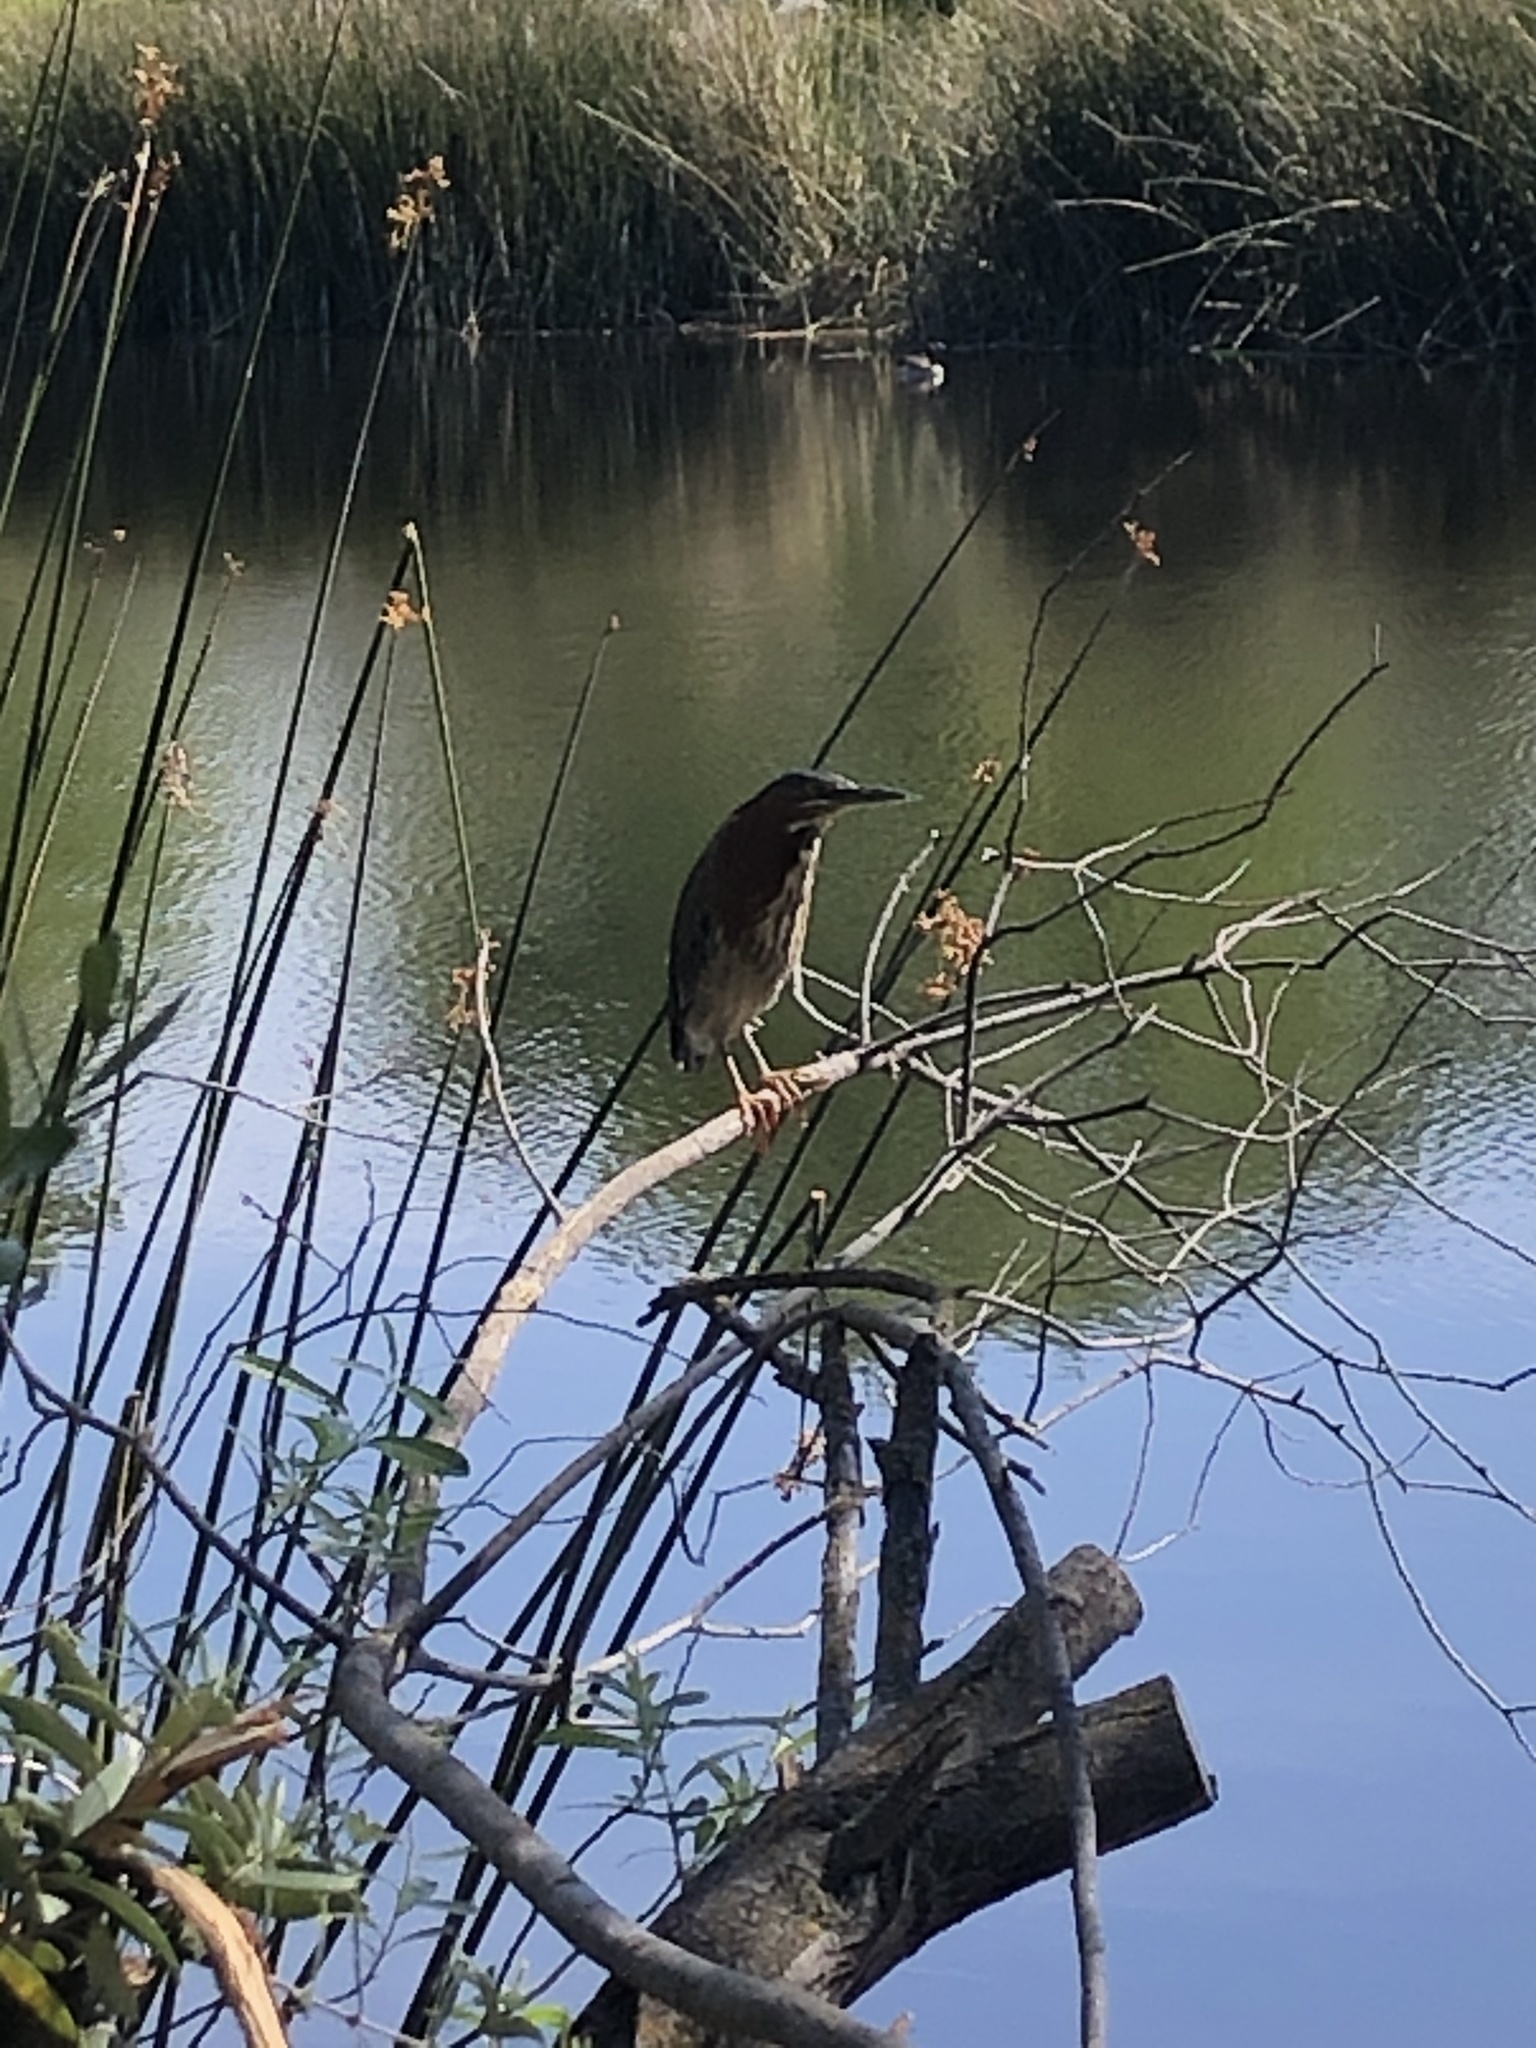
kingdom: Animalia
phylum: Chordata
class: Aves
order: Pelecaniformes
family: Ardeidae
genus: Butorides
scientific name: Butorides virescens
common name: Green heron
